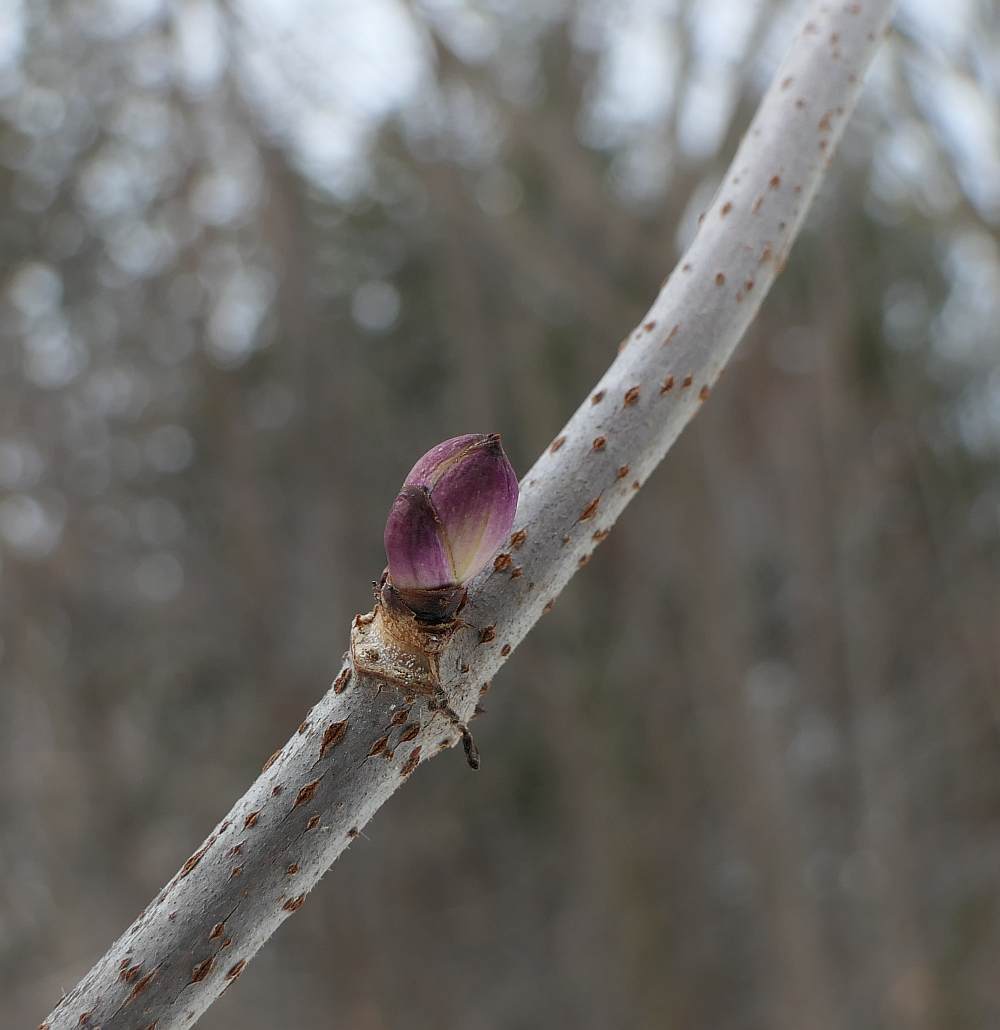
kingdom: Plantae
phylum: Tracheophyta
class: Magnoliopsida
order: Dipsacales
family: Viburnaceae
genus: Sambucus
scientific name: Sambucus racemosa
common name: Red-berried elder
